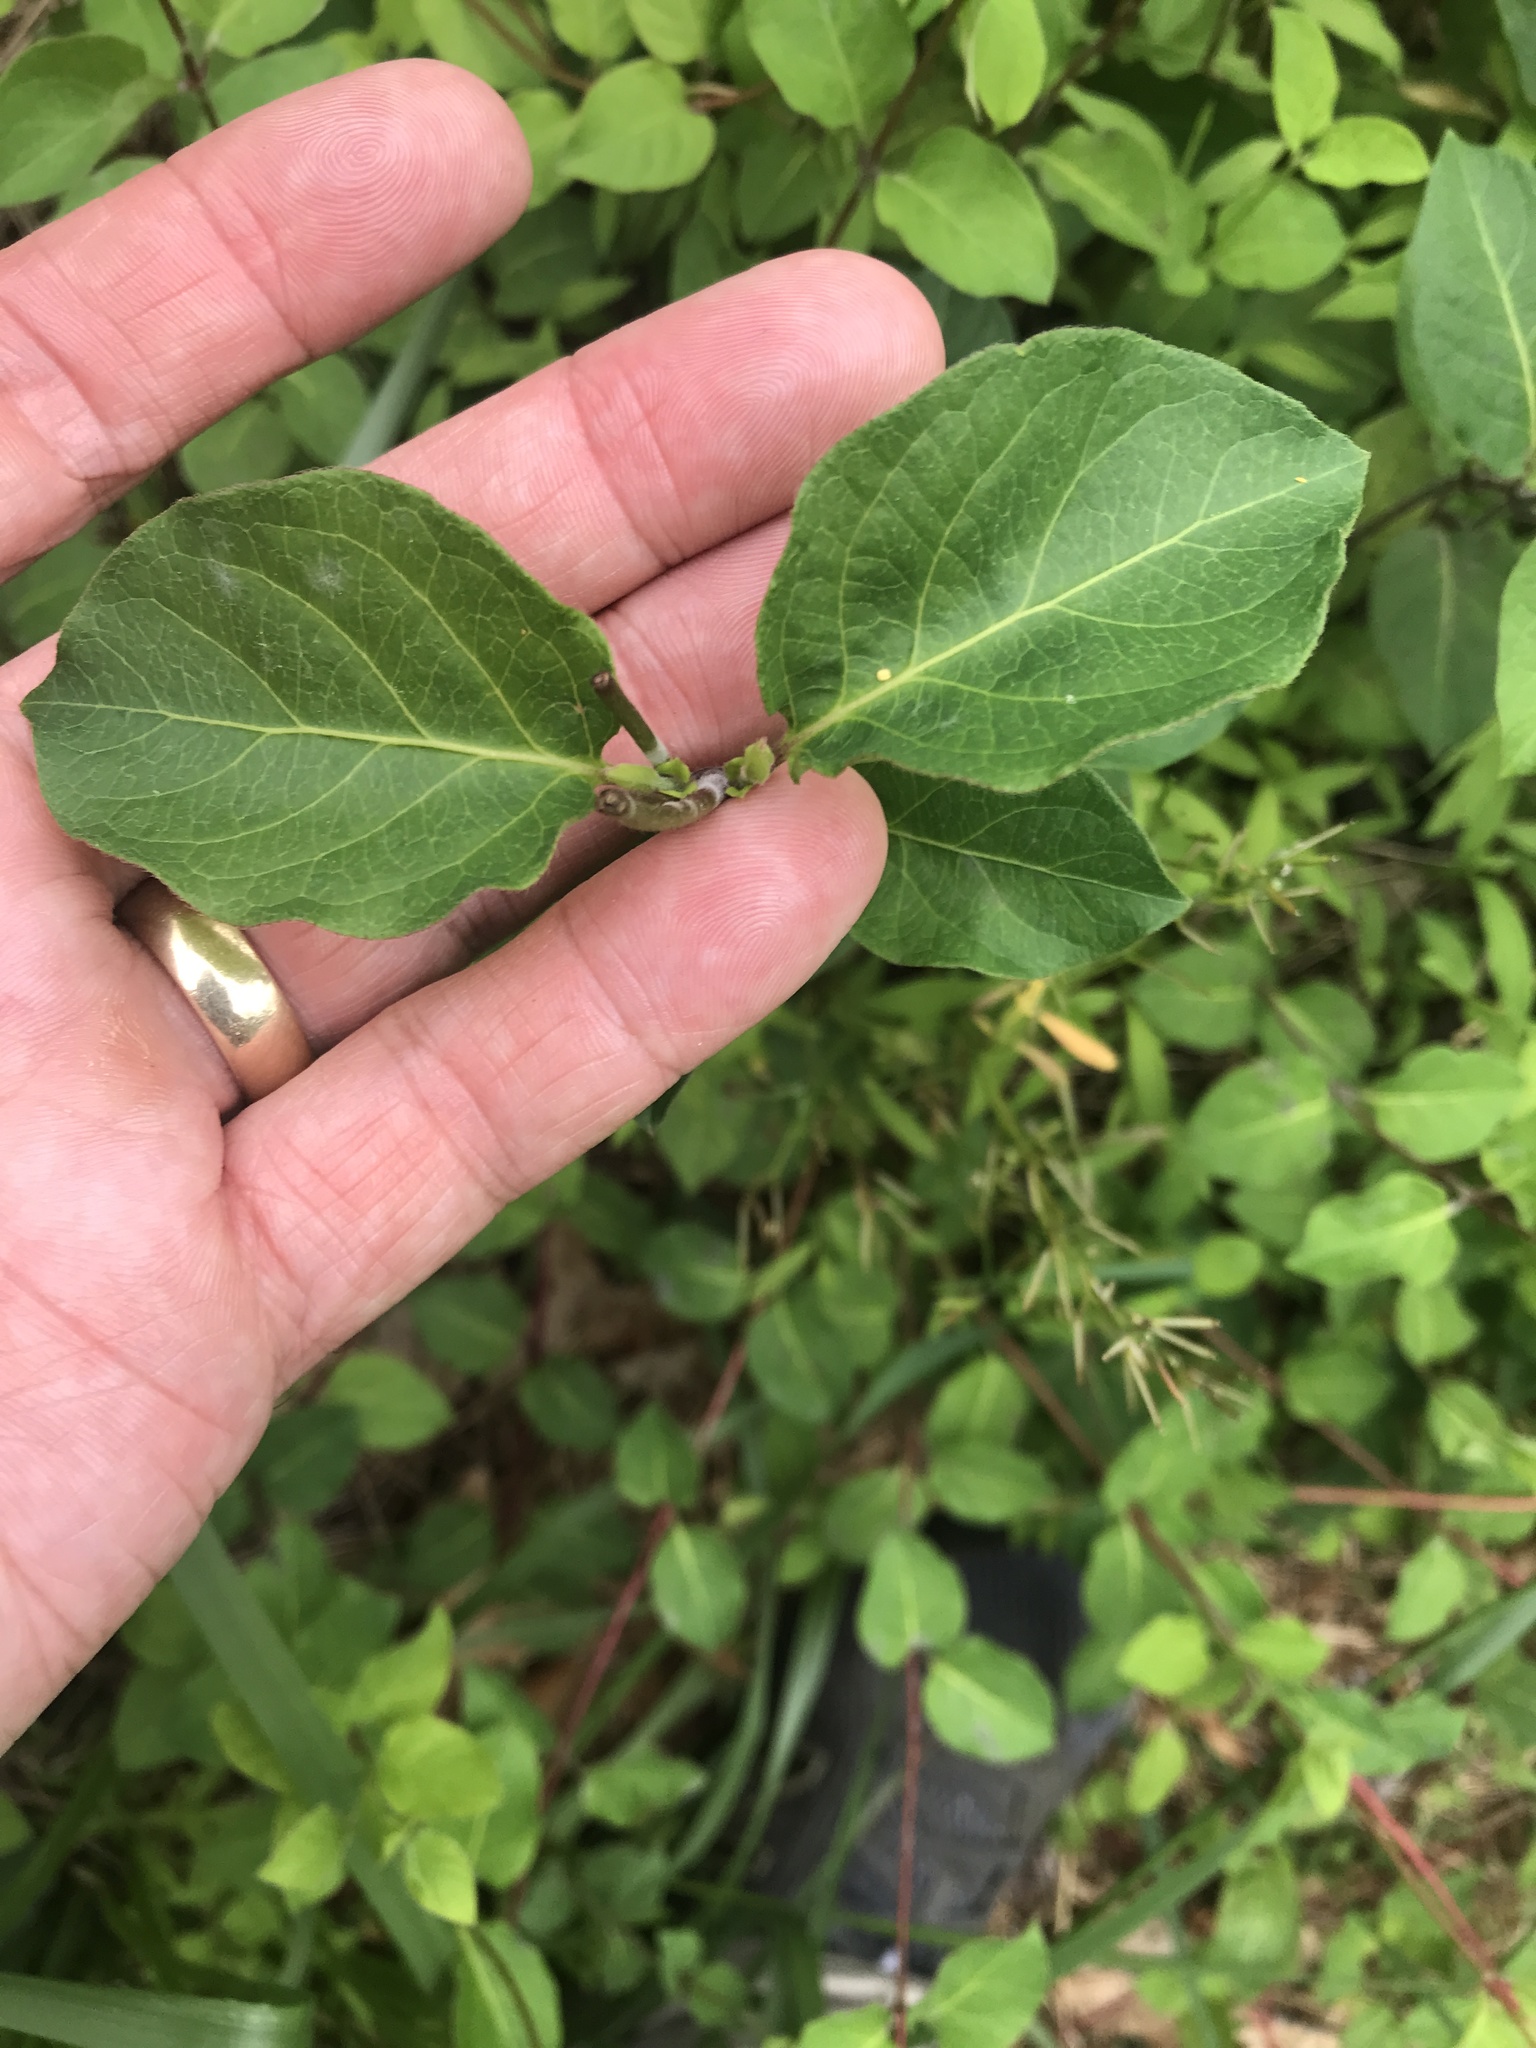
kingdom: Plantae
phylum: Tracheophyta
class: Magnoliopsida
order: Dipsacales
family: Caprifoliaceae
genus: Lonicera
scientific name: Lonicera japonica
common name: Japanese honeysuckle
